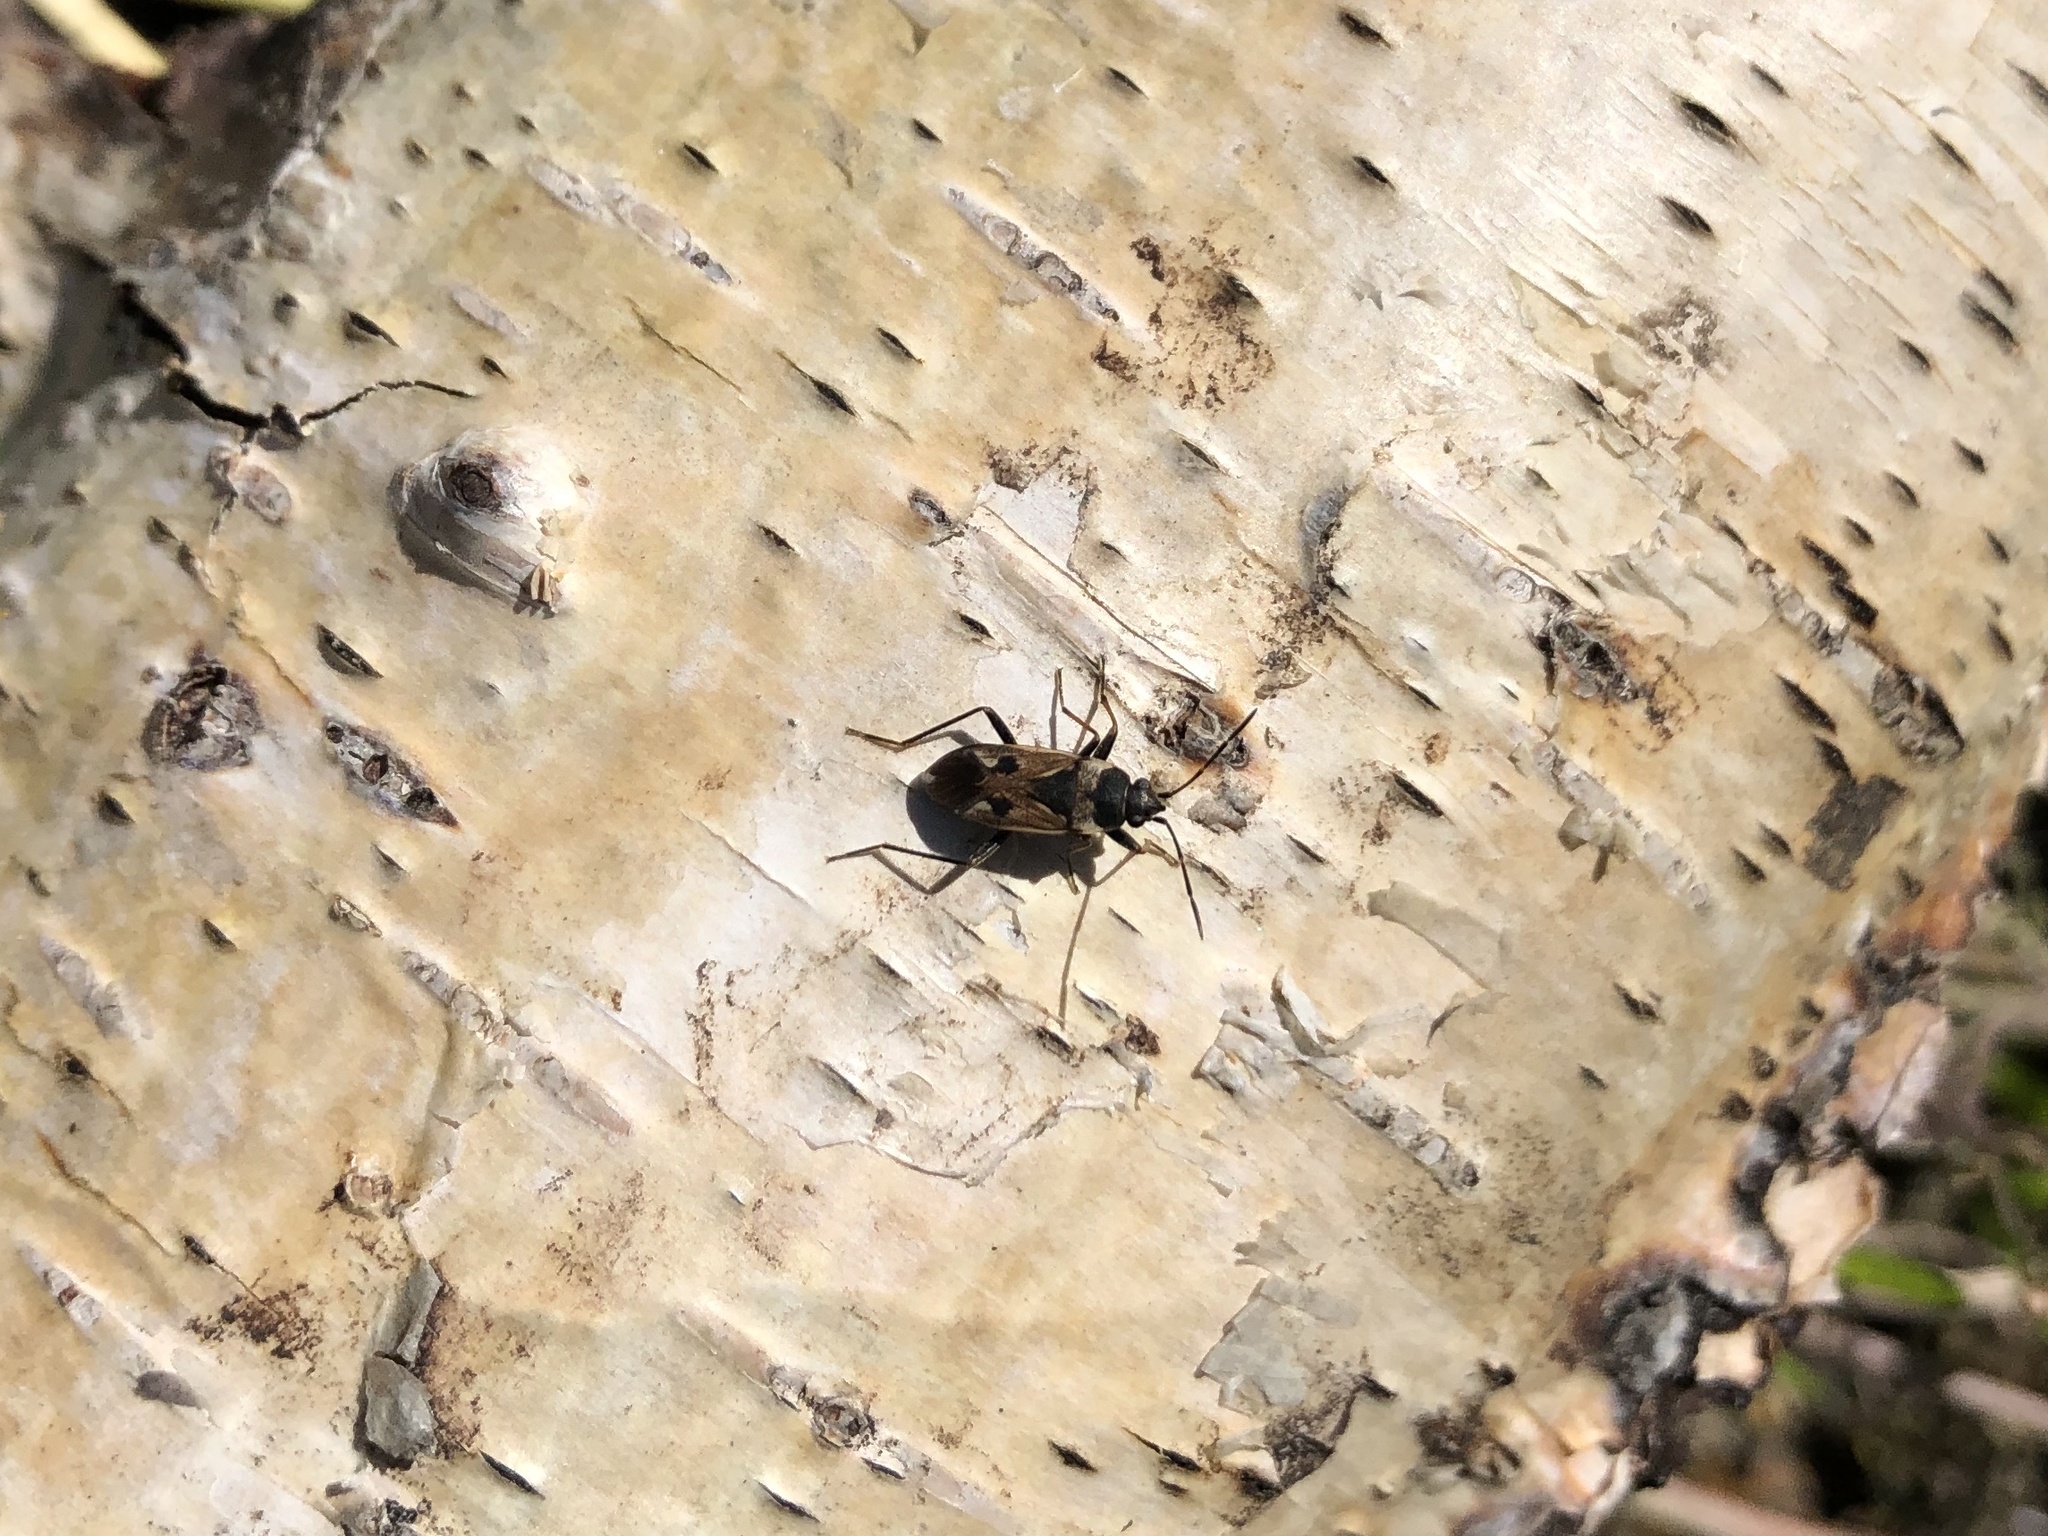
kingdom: Animalia
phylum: Arthropoda
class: Insecta
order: Hemiptera
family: Rhyparochromidae
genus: Rhyparochromus
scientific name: Rhyparochromus vulgaris
